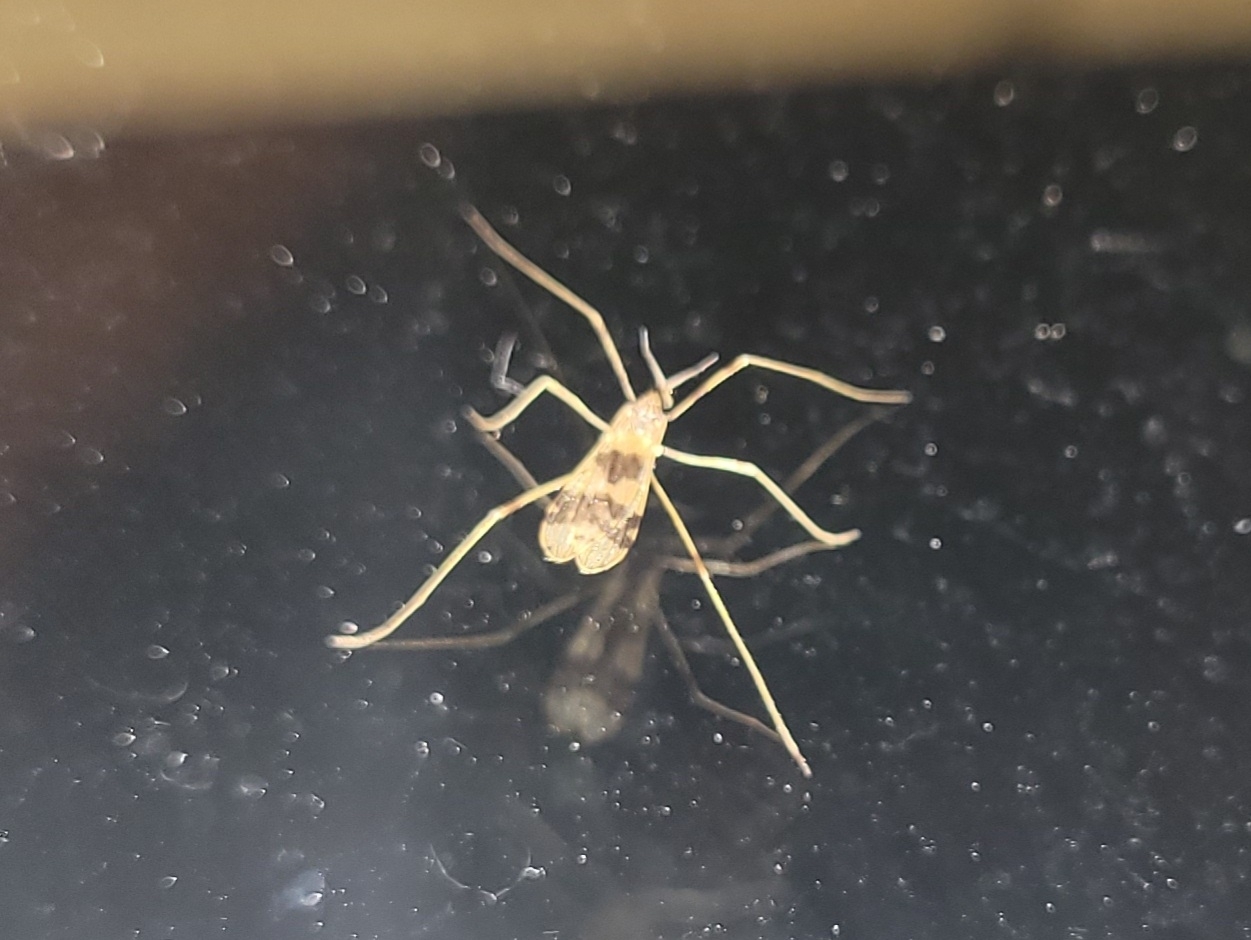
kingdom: Animalia
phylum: Arthropoda
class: Insecta
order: Diptera
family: Limoniidae
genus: Ilisia
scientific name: Ilisia venusta
